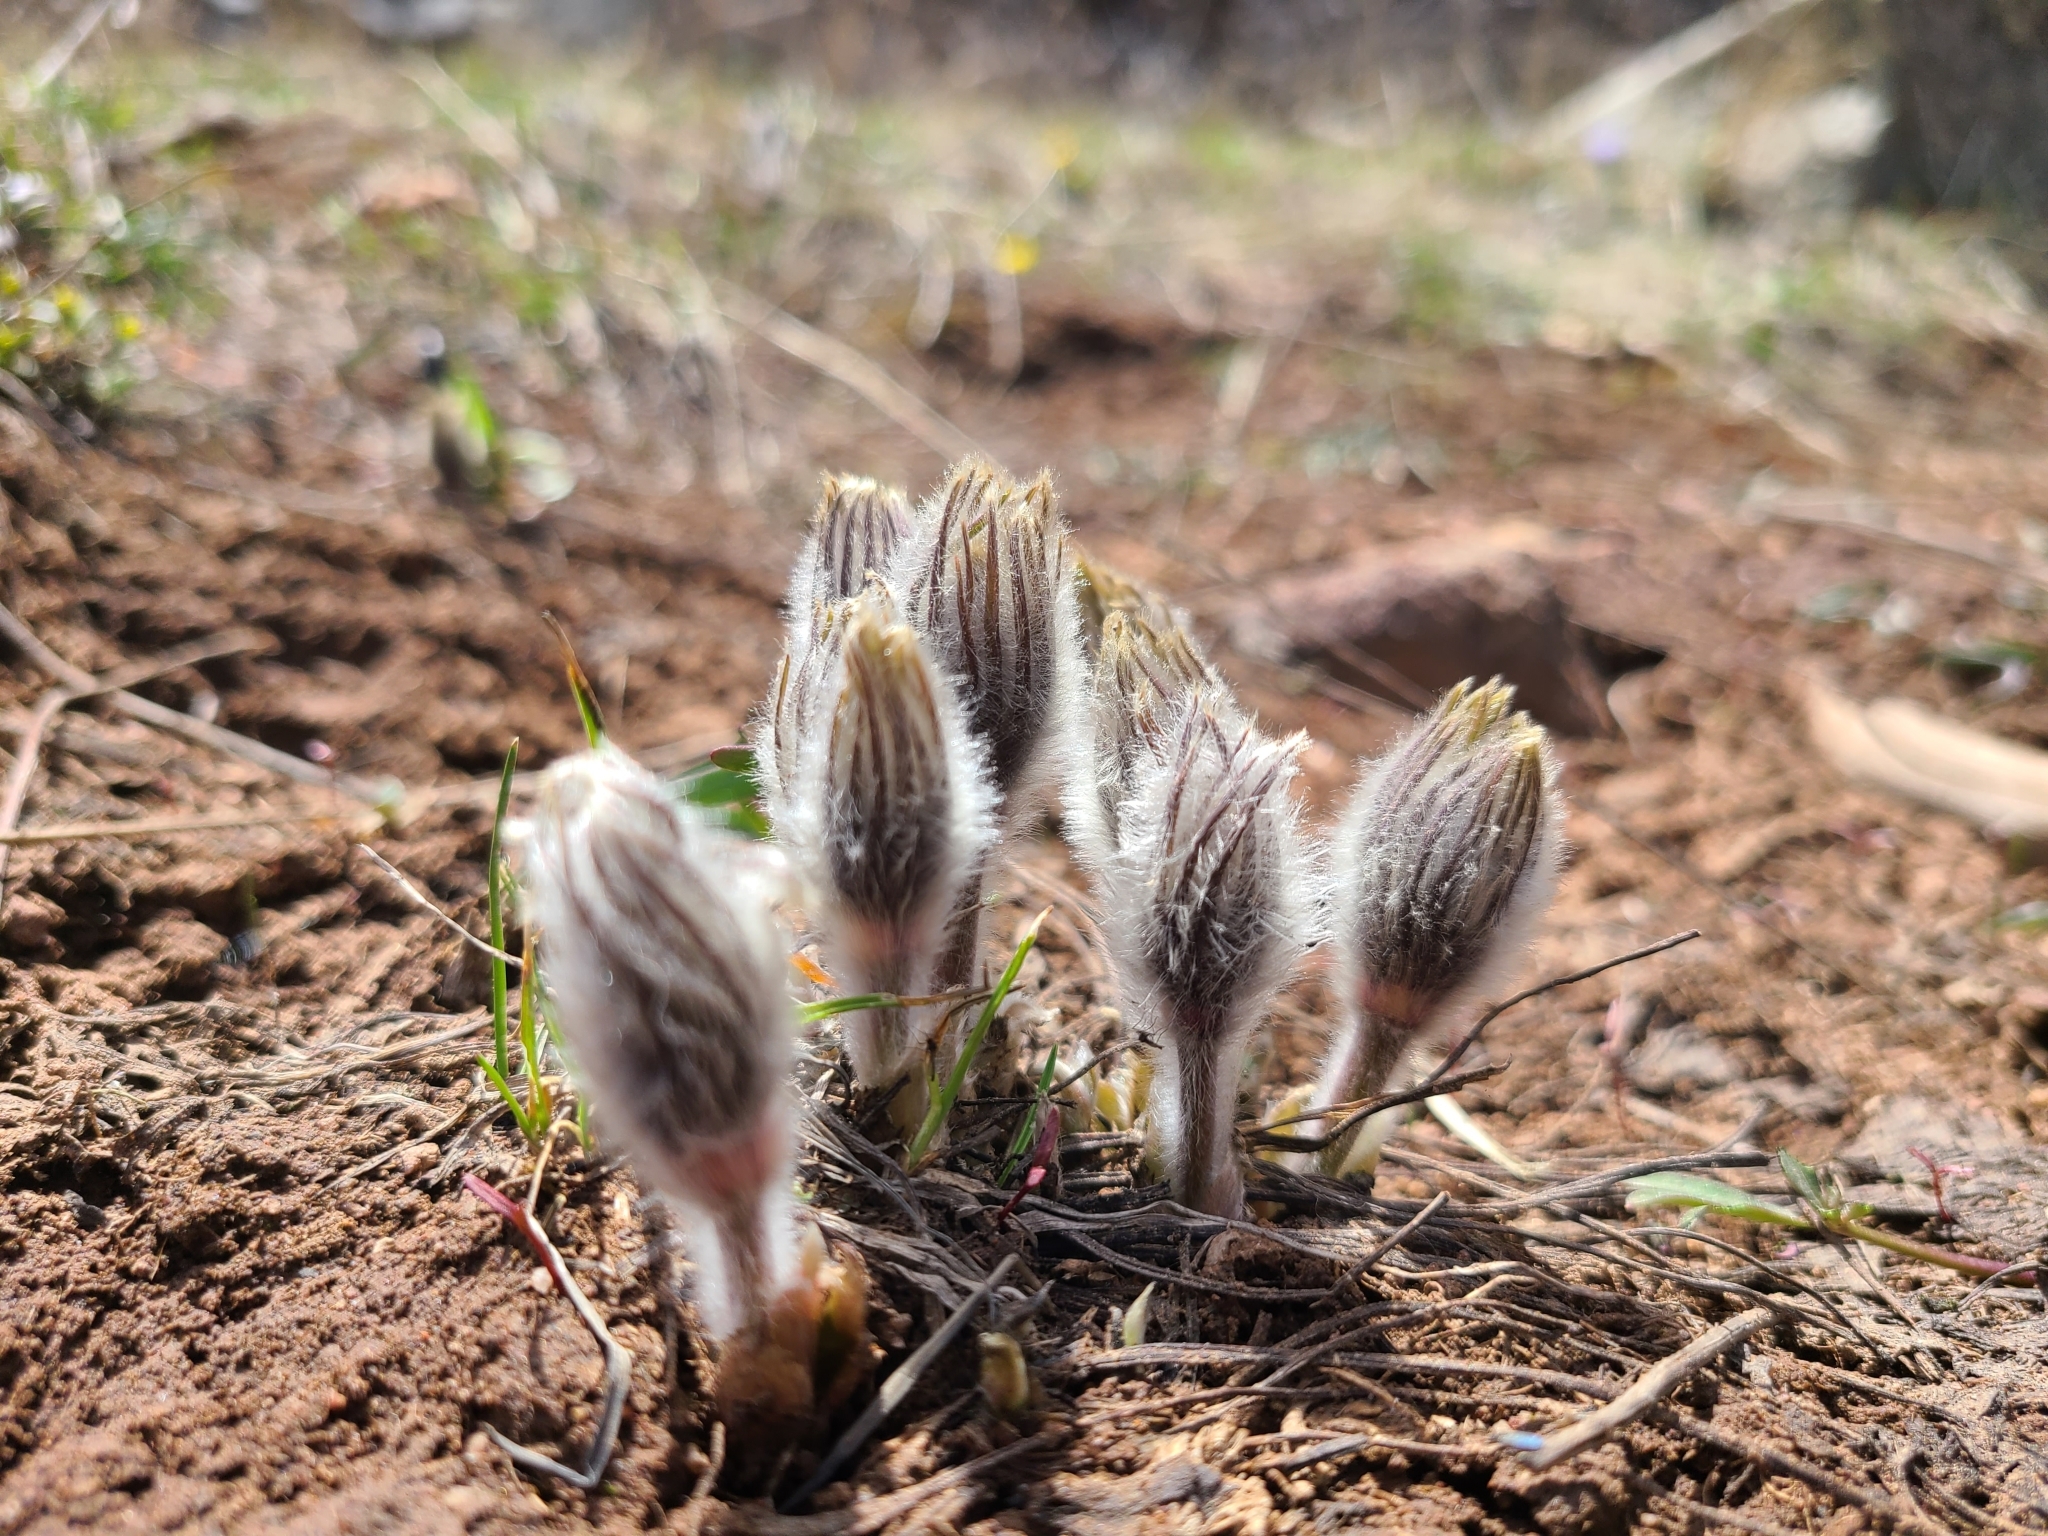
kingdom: Plantae
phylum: Tracheophyta
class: Magnoliopsida
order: Ranunculales
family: Ranunculaceae
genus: Pulsatilla
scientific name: Pulsatilla nuttalliana
